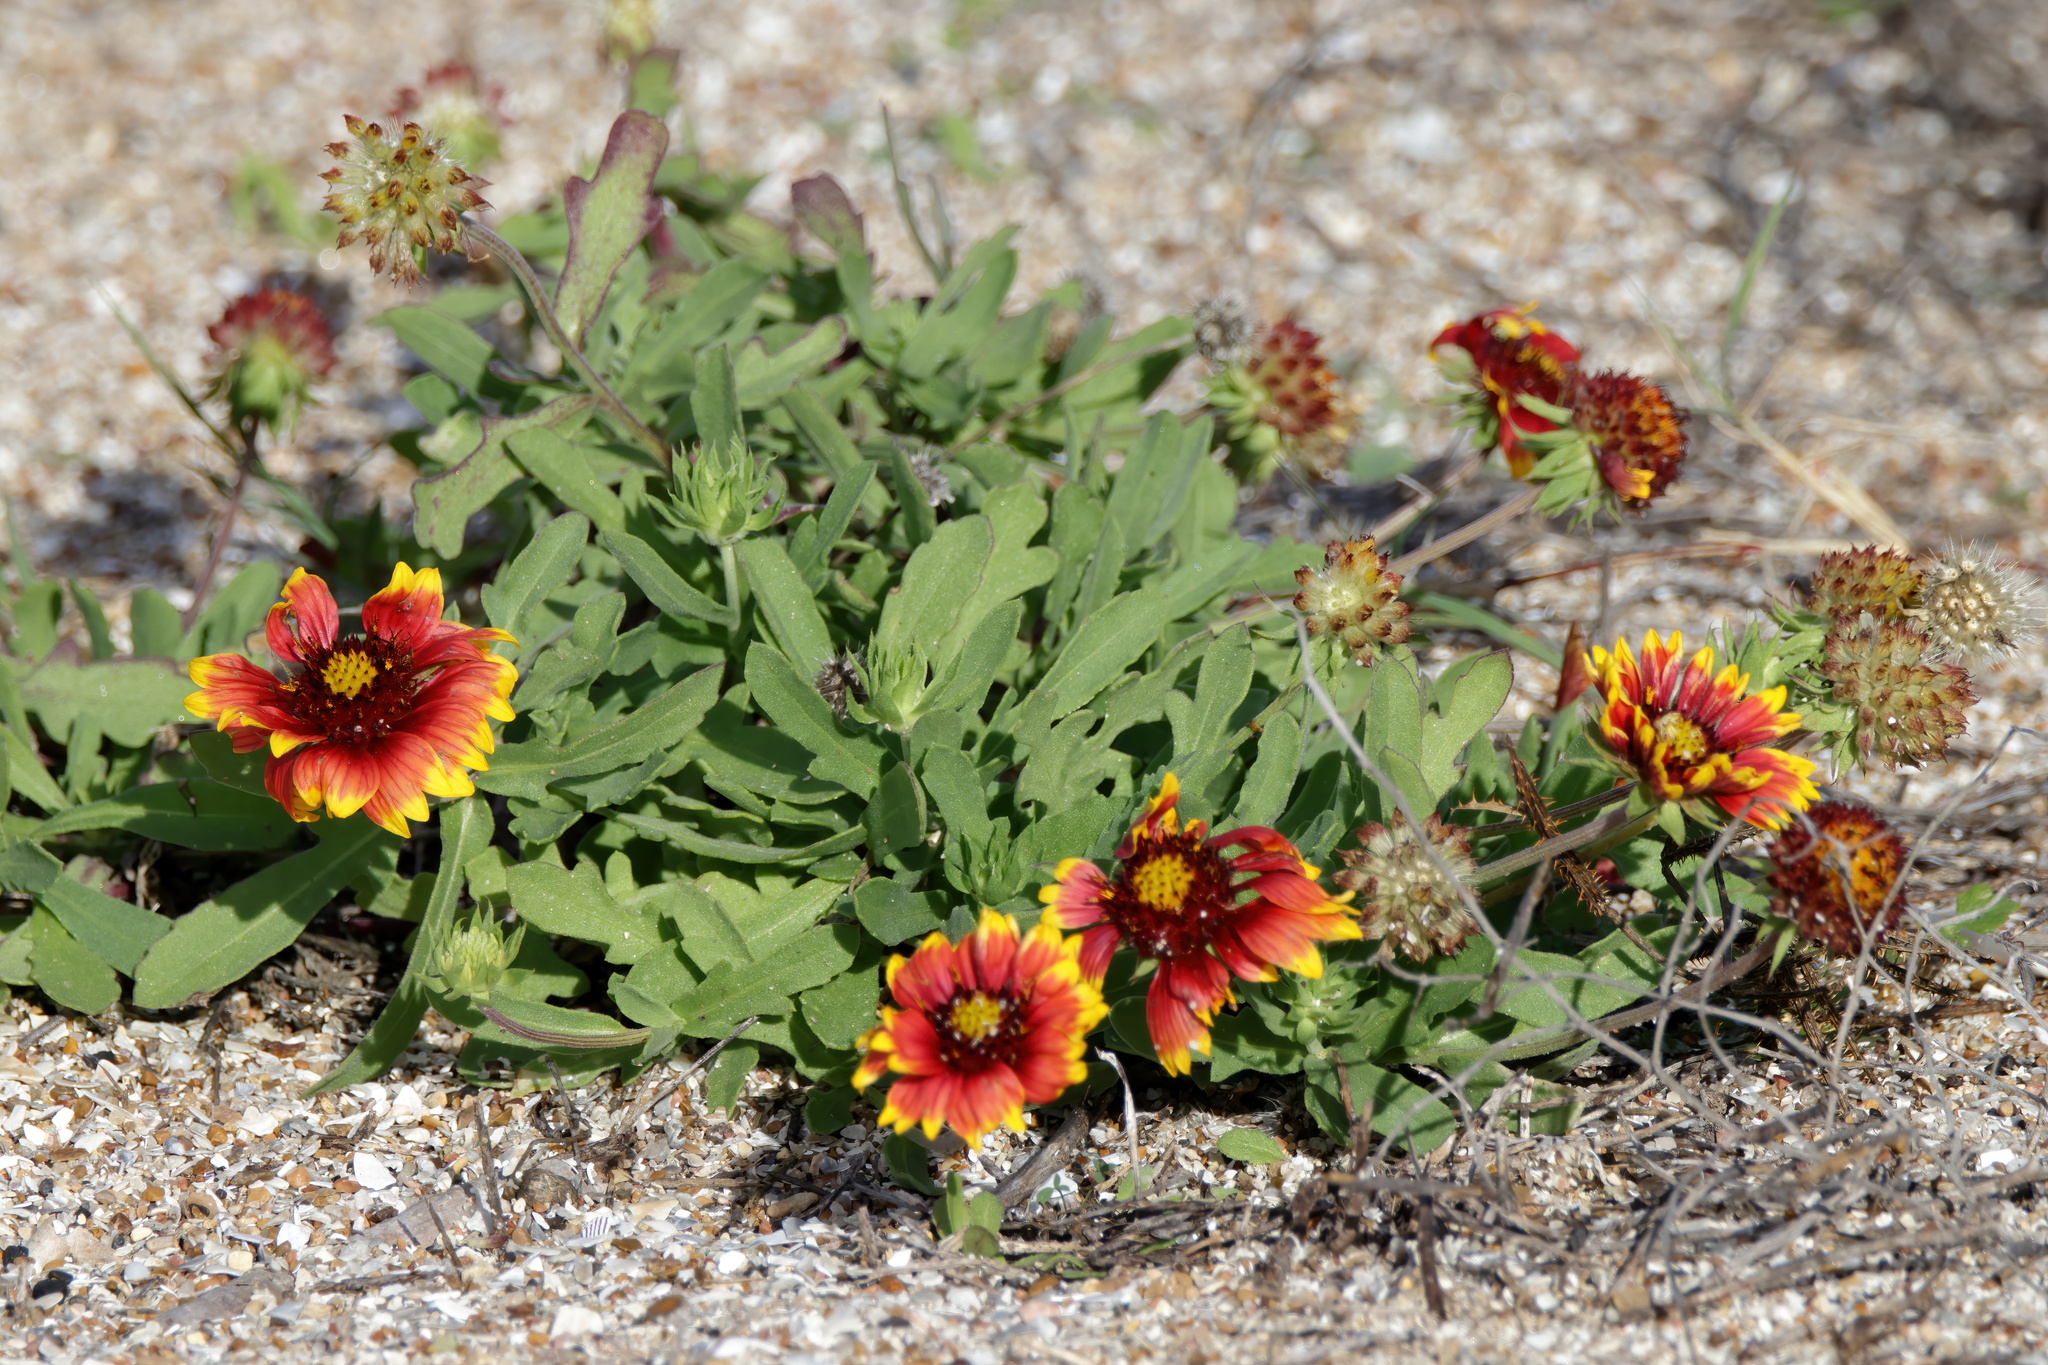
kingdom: Plantae
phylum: Tracheophyta
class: Magnoliopsida
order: Asterales
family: Asteraceae
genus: Gaillardia
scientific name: Gaillardia pulchella
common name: Firewheel
